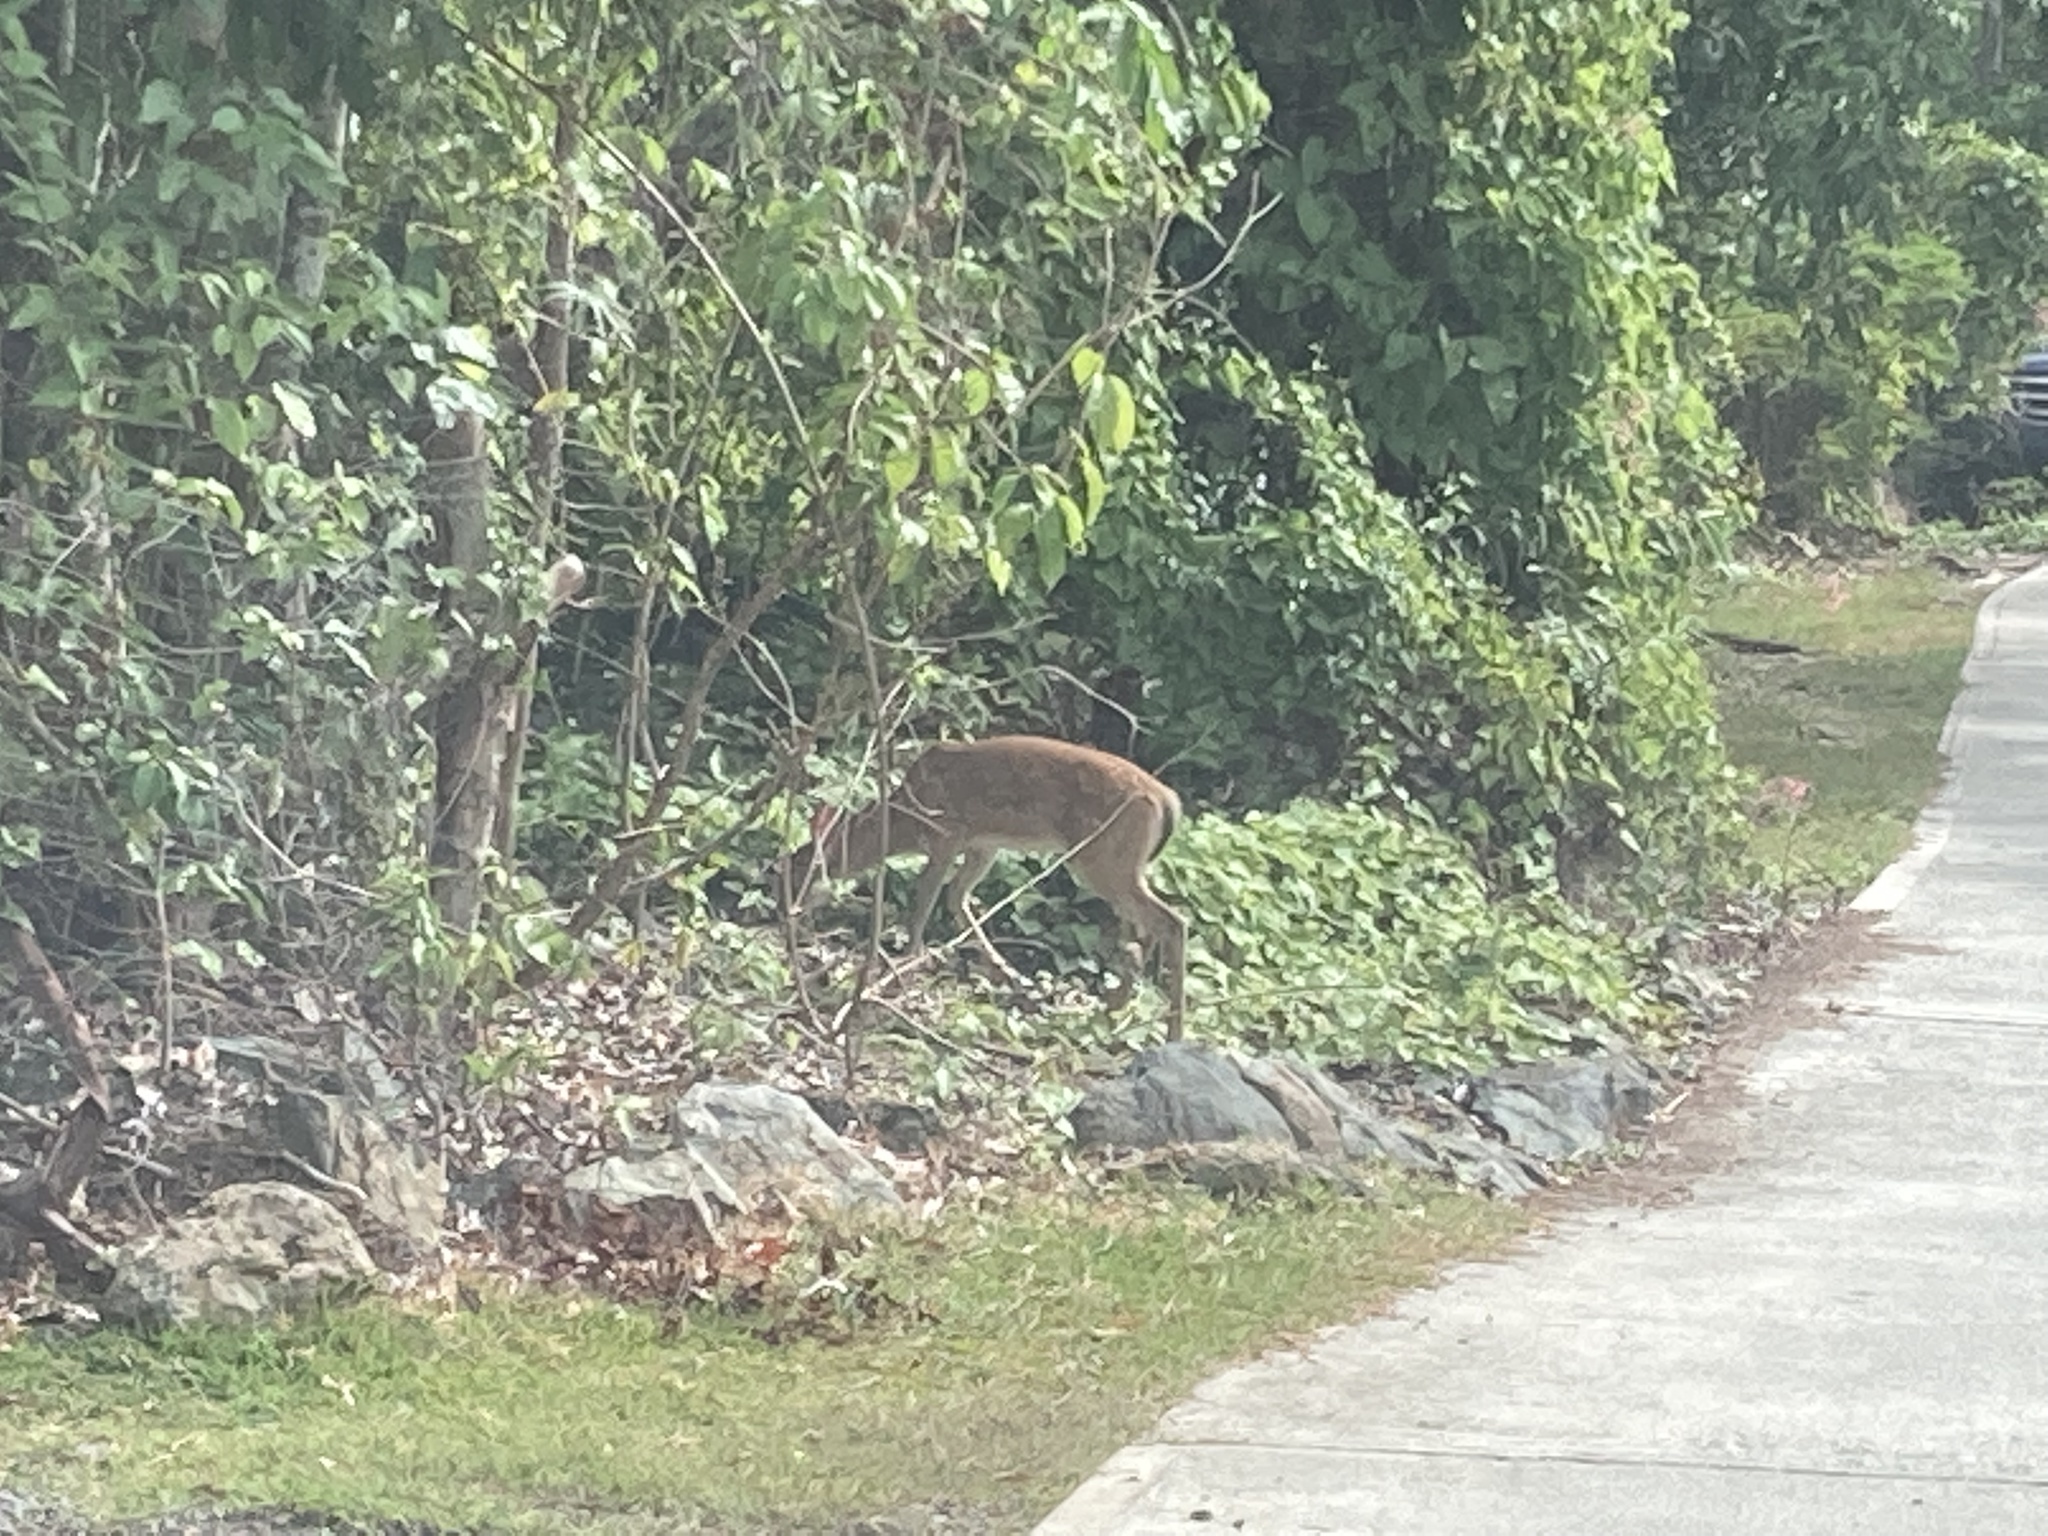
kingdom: Animalia
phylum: Chordata
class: Mammalia
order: Artiodactyla
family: Cervidae
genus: Odocoileus
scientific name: Odocoileus virginianus
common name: White-tailed deer
